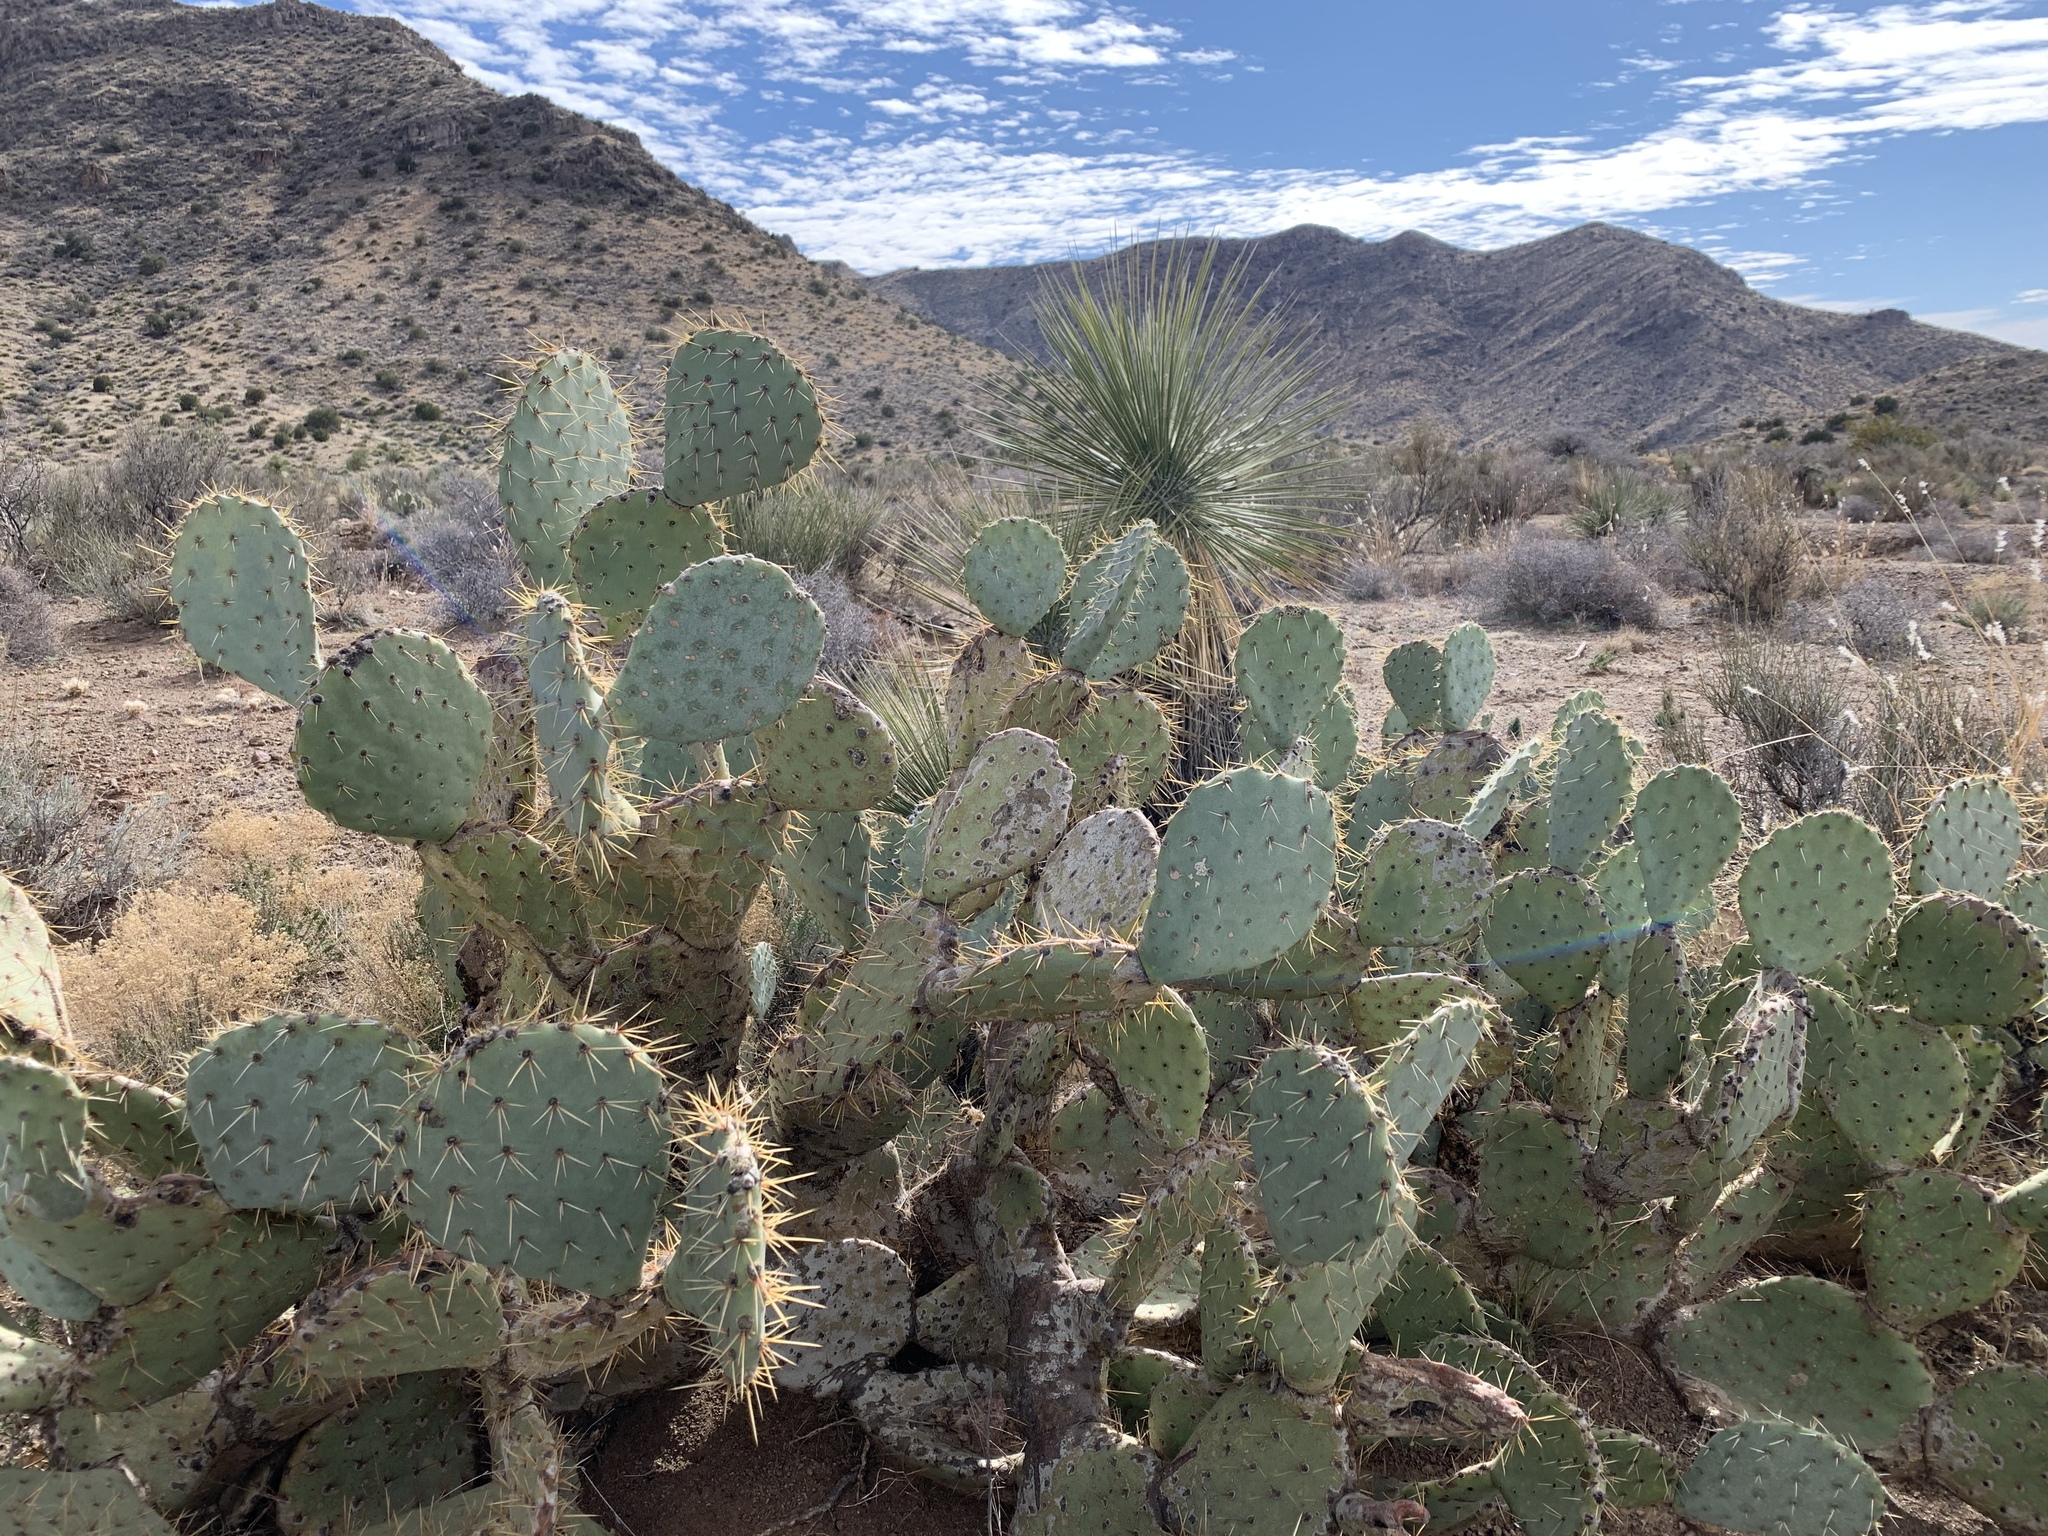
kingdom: Plantae
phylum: Tracheophyta
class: Magnoliopsida
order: Caryophyllales
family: Cactaceae
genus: Opuntia
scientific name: Opuntia engelmannii
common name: Cactus-apple
